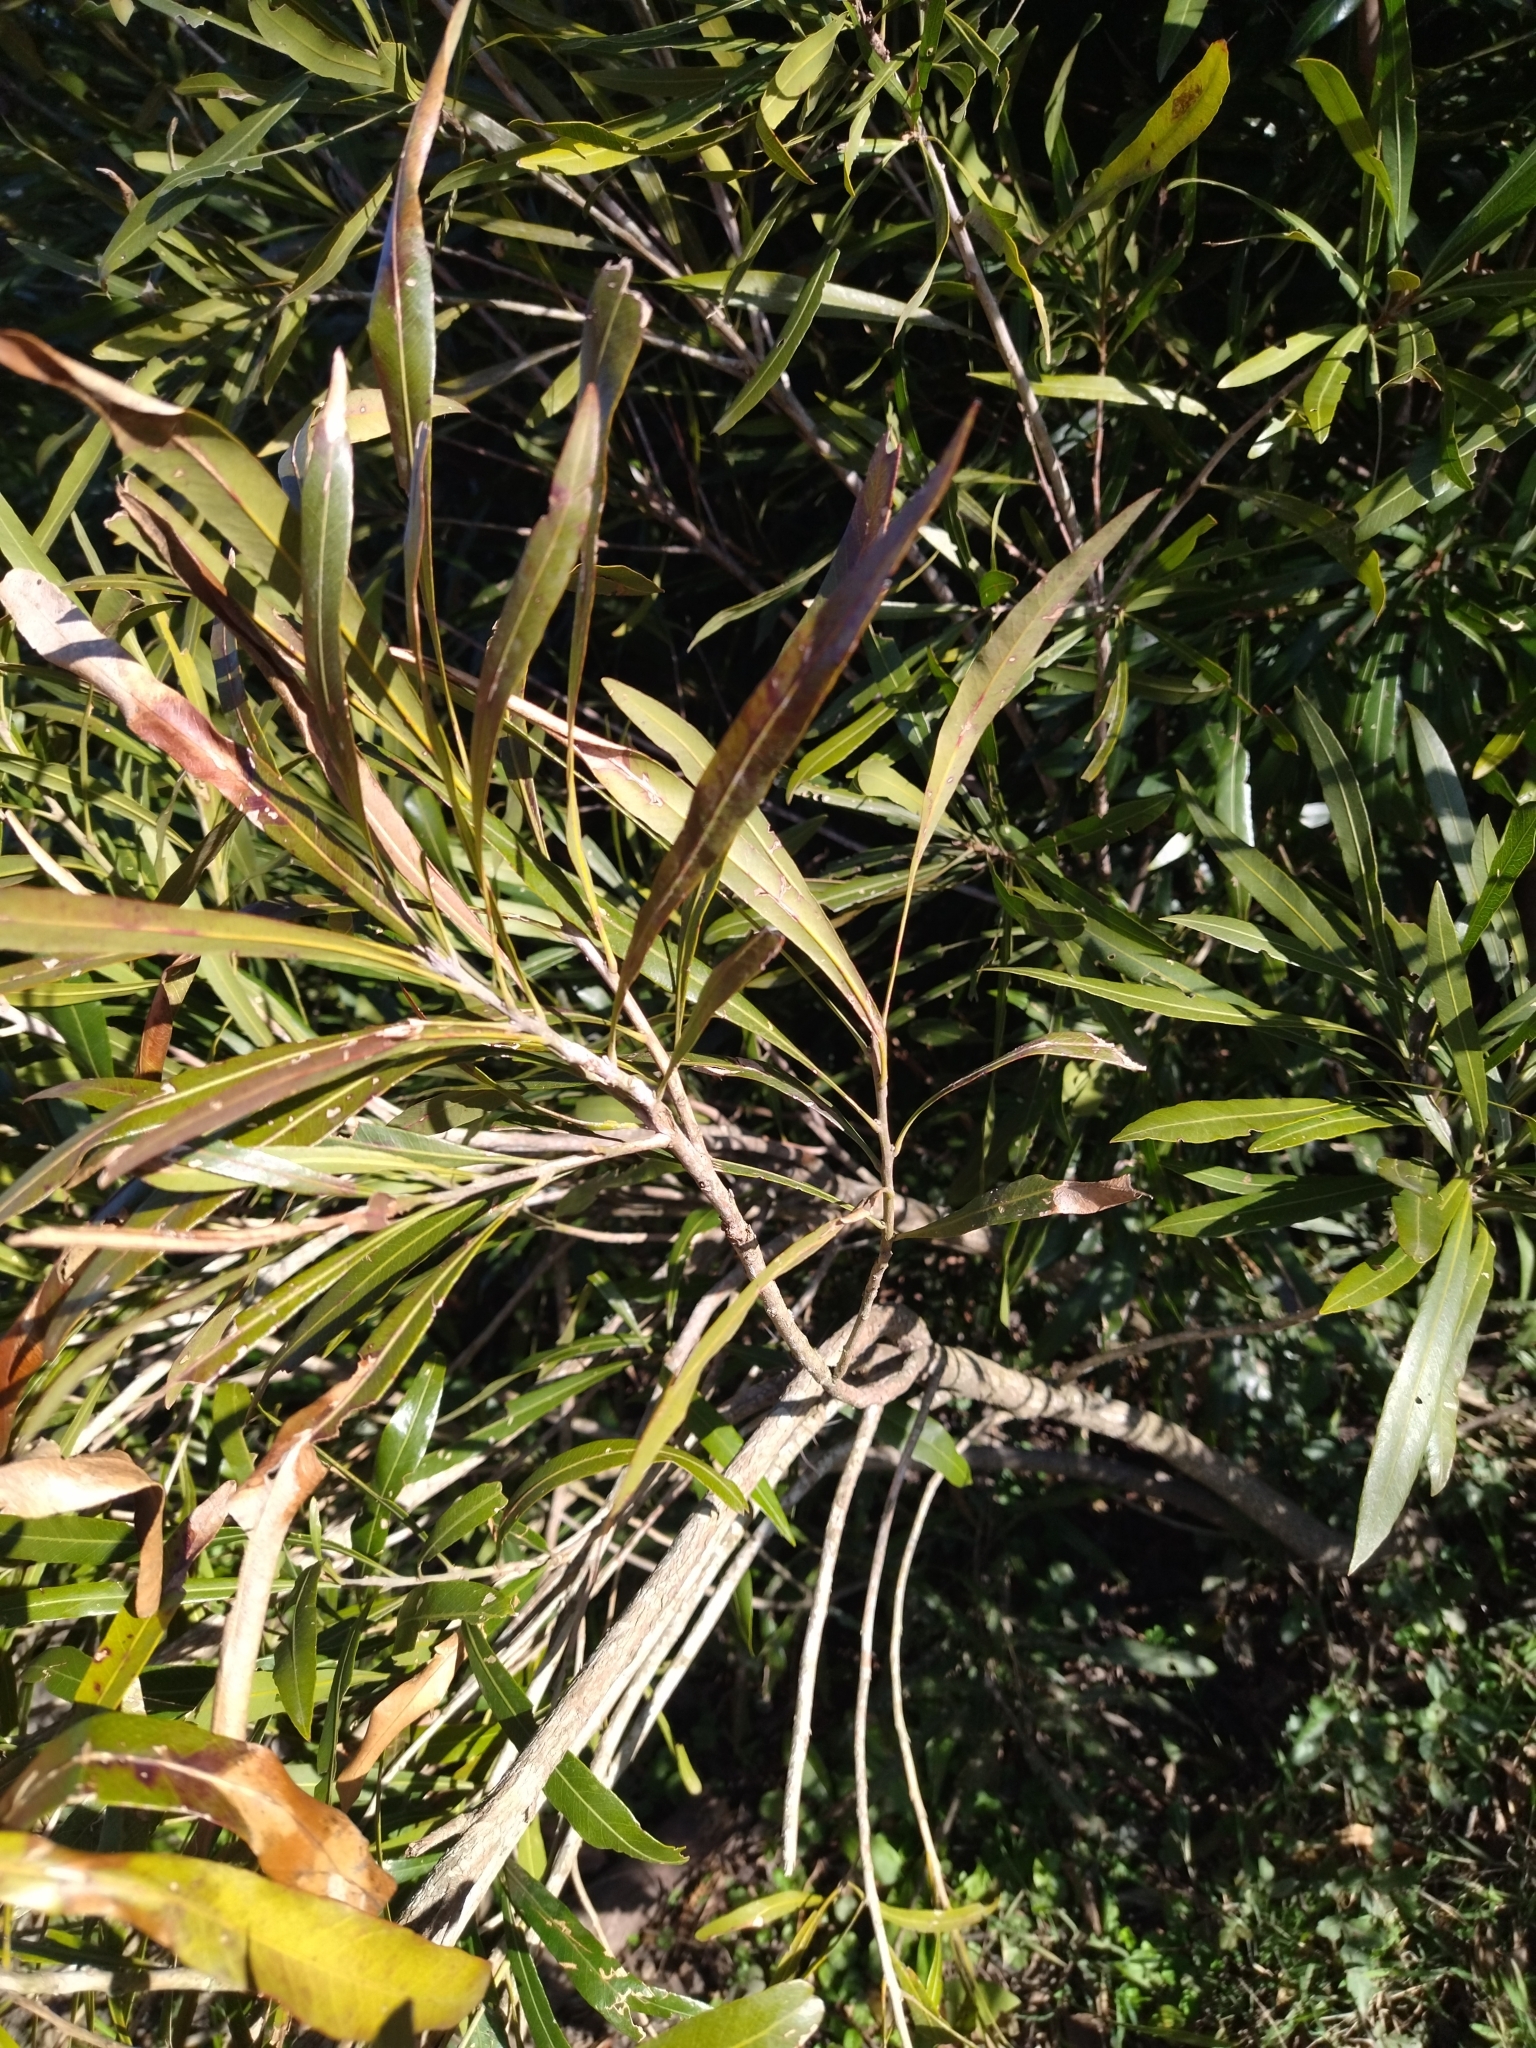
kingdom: Plantae
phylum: Tracheophyta
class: Magnoliopsida
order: Ericales
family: Sapotaceae
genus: Labatia
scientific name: Labatia salicifolia
